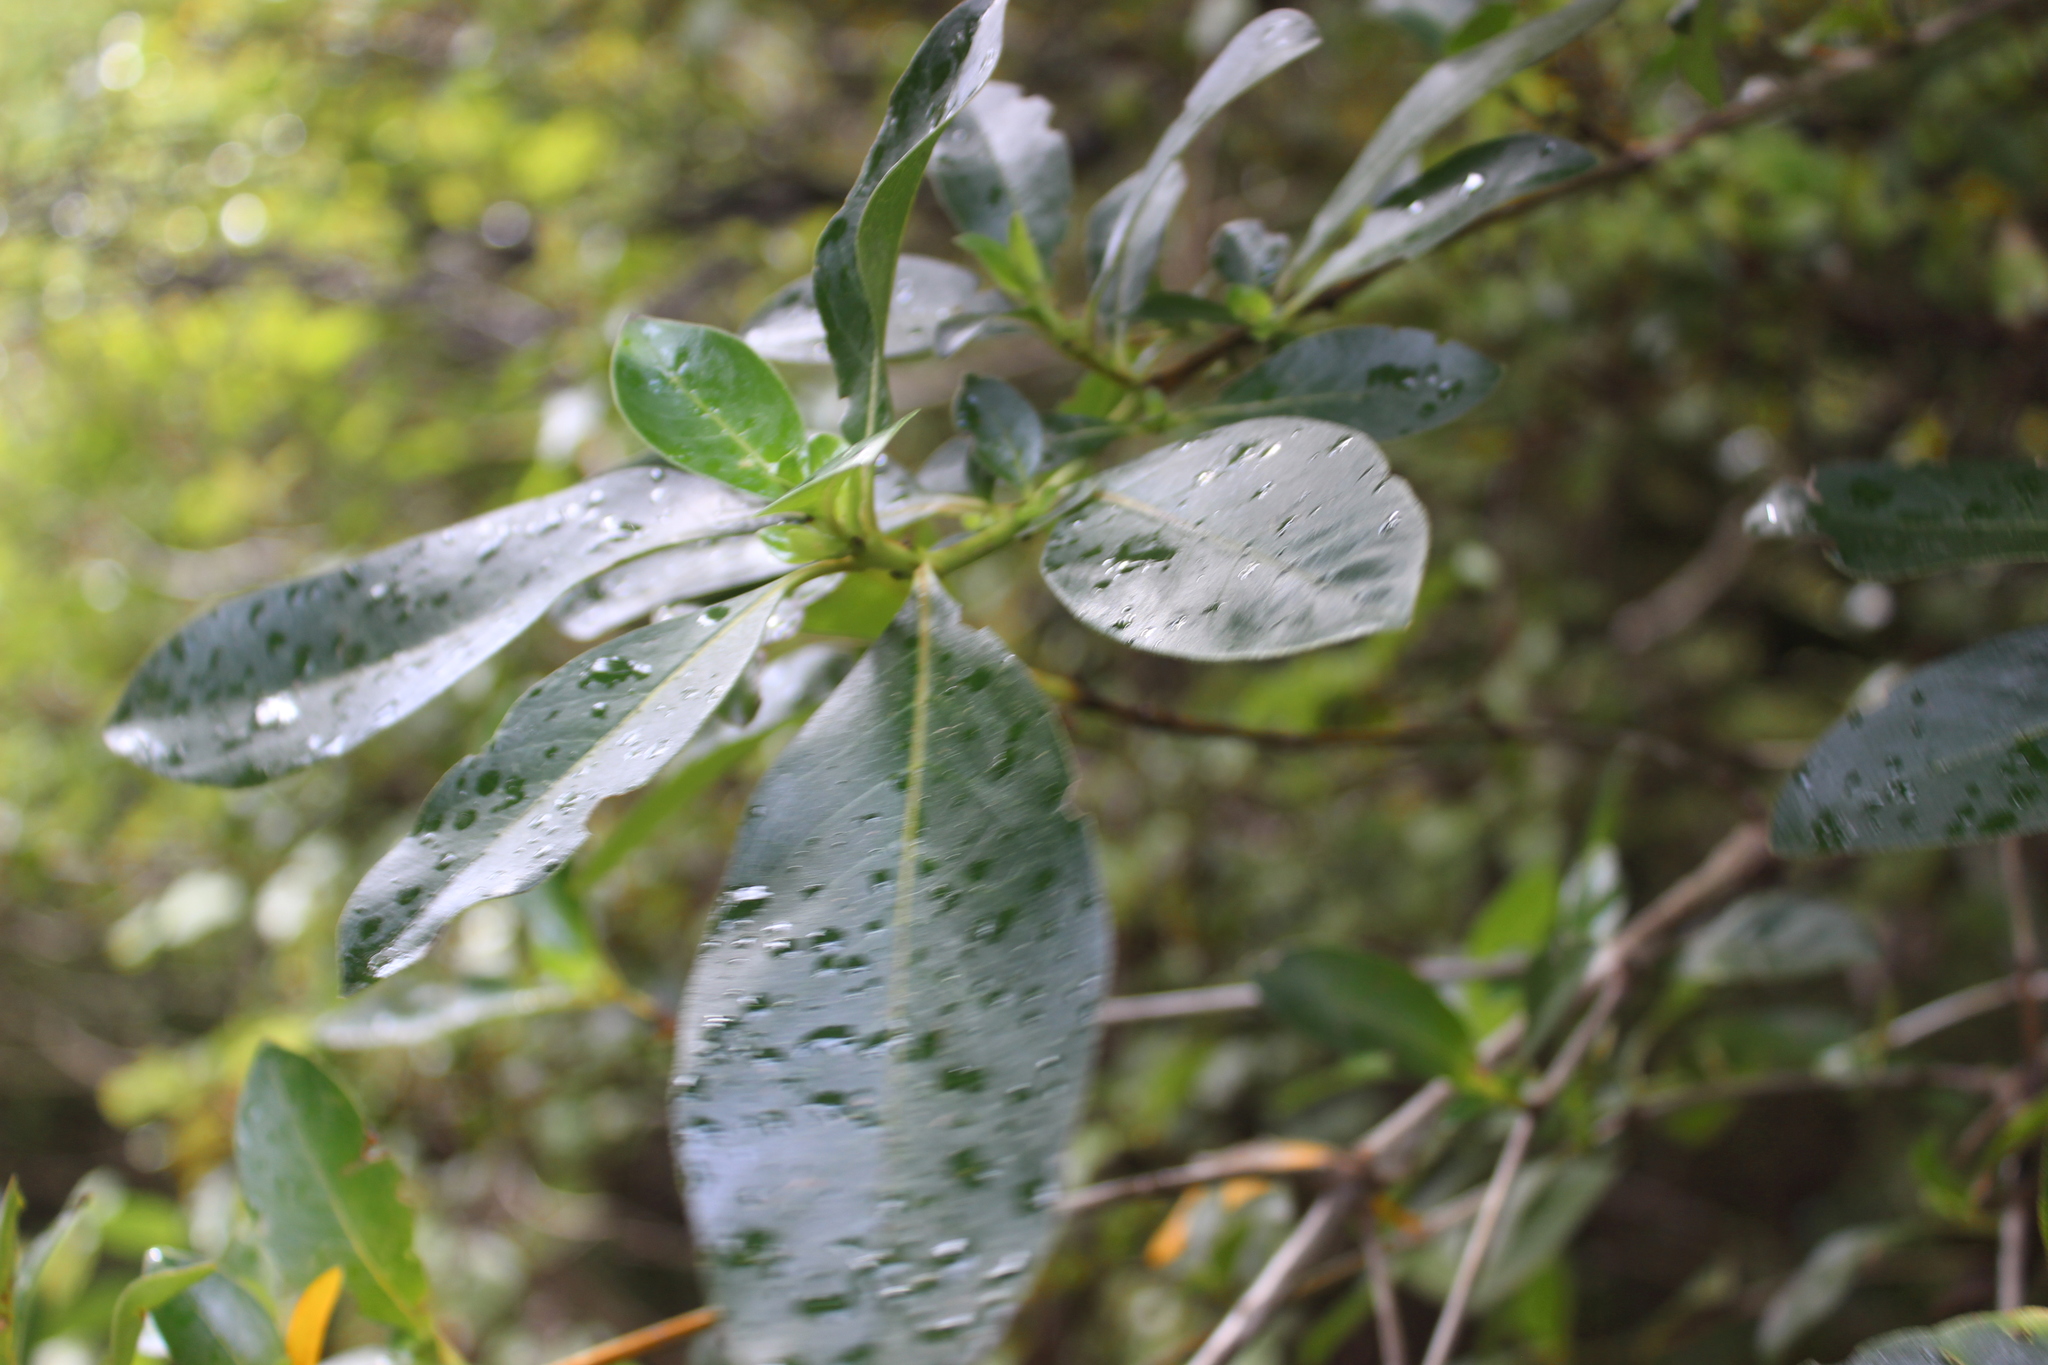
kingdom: Plantae
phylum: Tracheophyta
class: Magnoliopsida
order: Gentianales
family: Rubiaceae
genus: Coprosma
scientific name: Coprosma robusta
